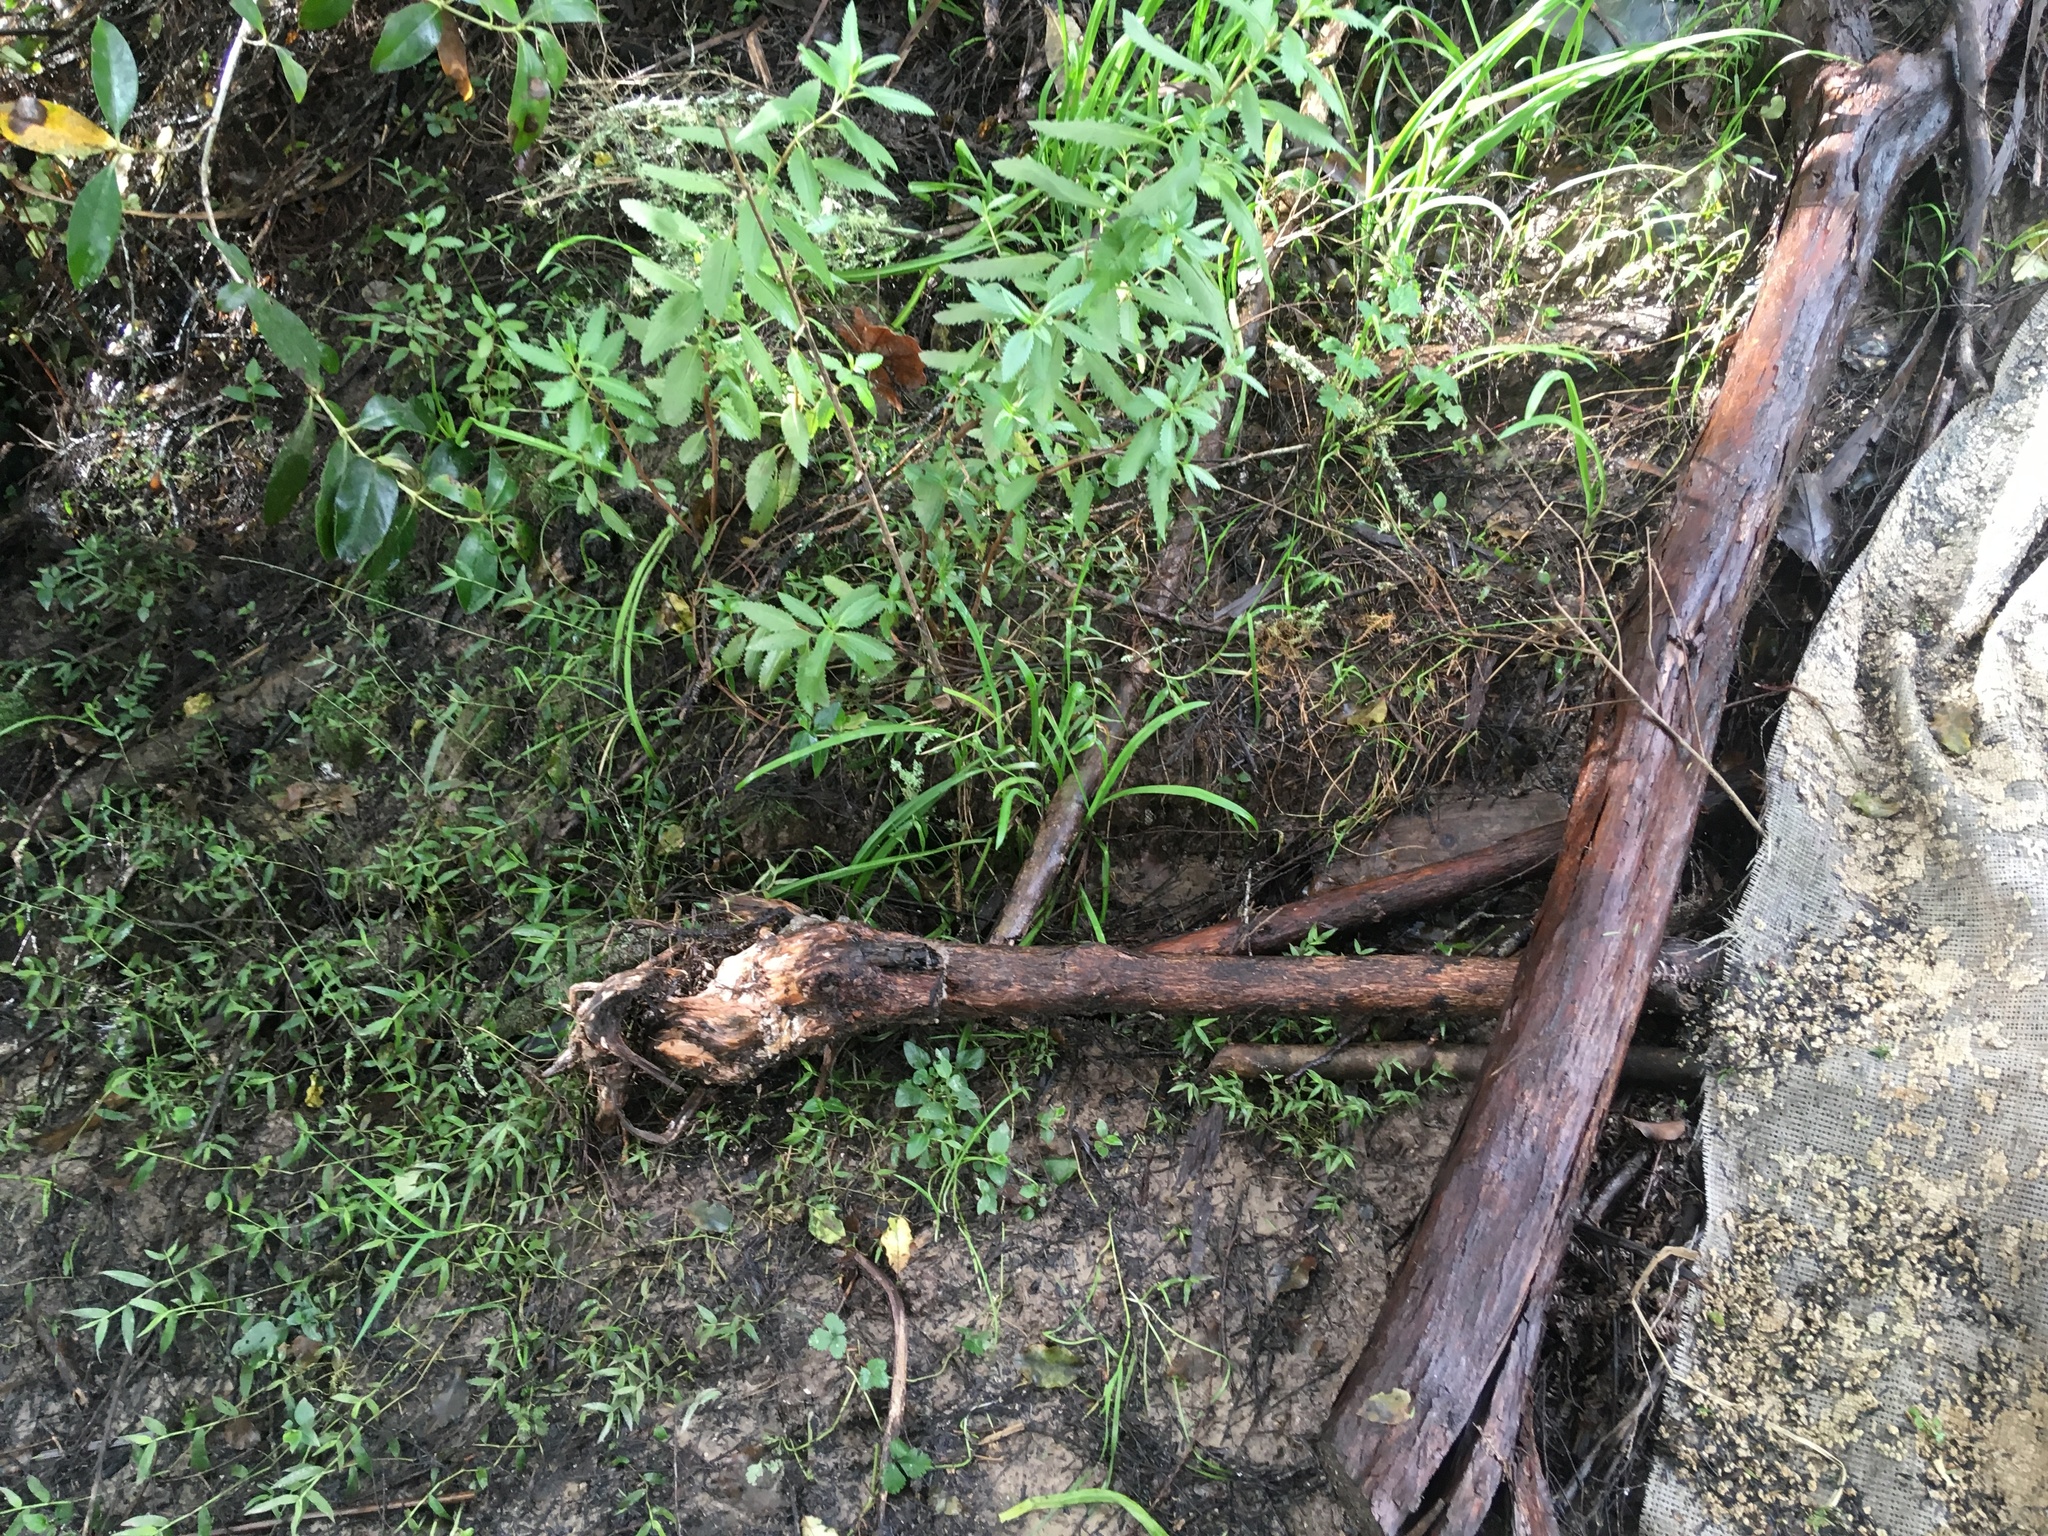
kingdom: Plantae
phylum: Tracheophyta
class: Magnoliopsida
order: Saxifragales
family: Haloragaceae
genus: Haloragis
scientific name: Haloragis erecta
